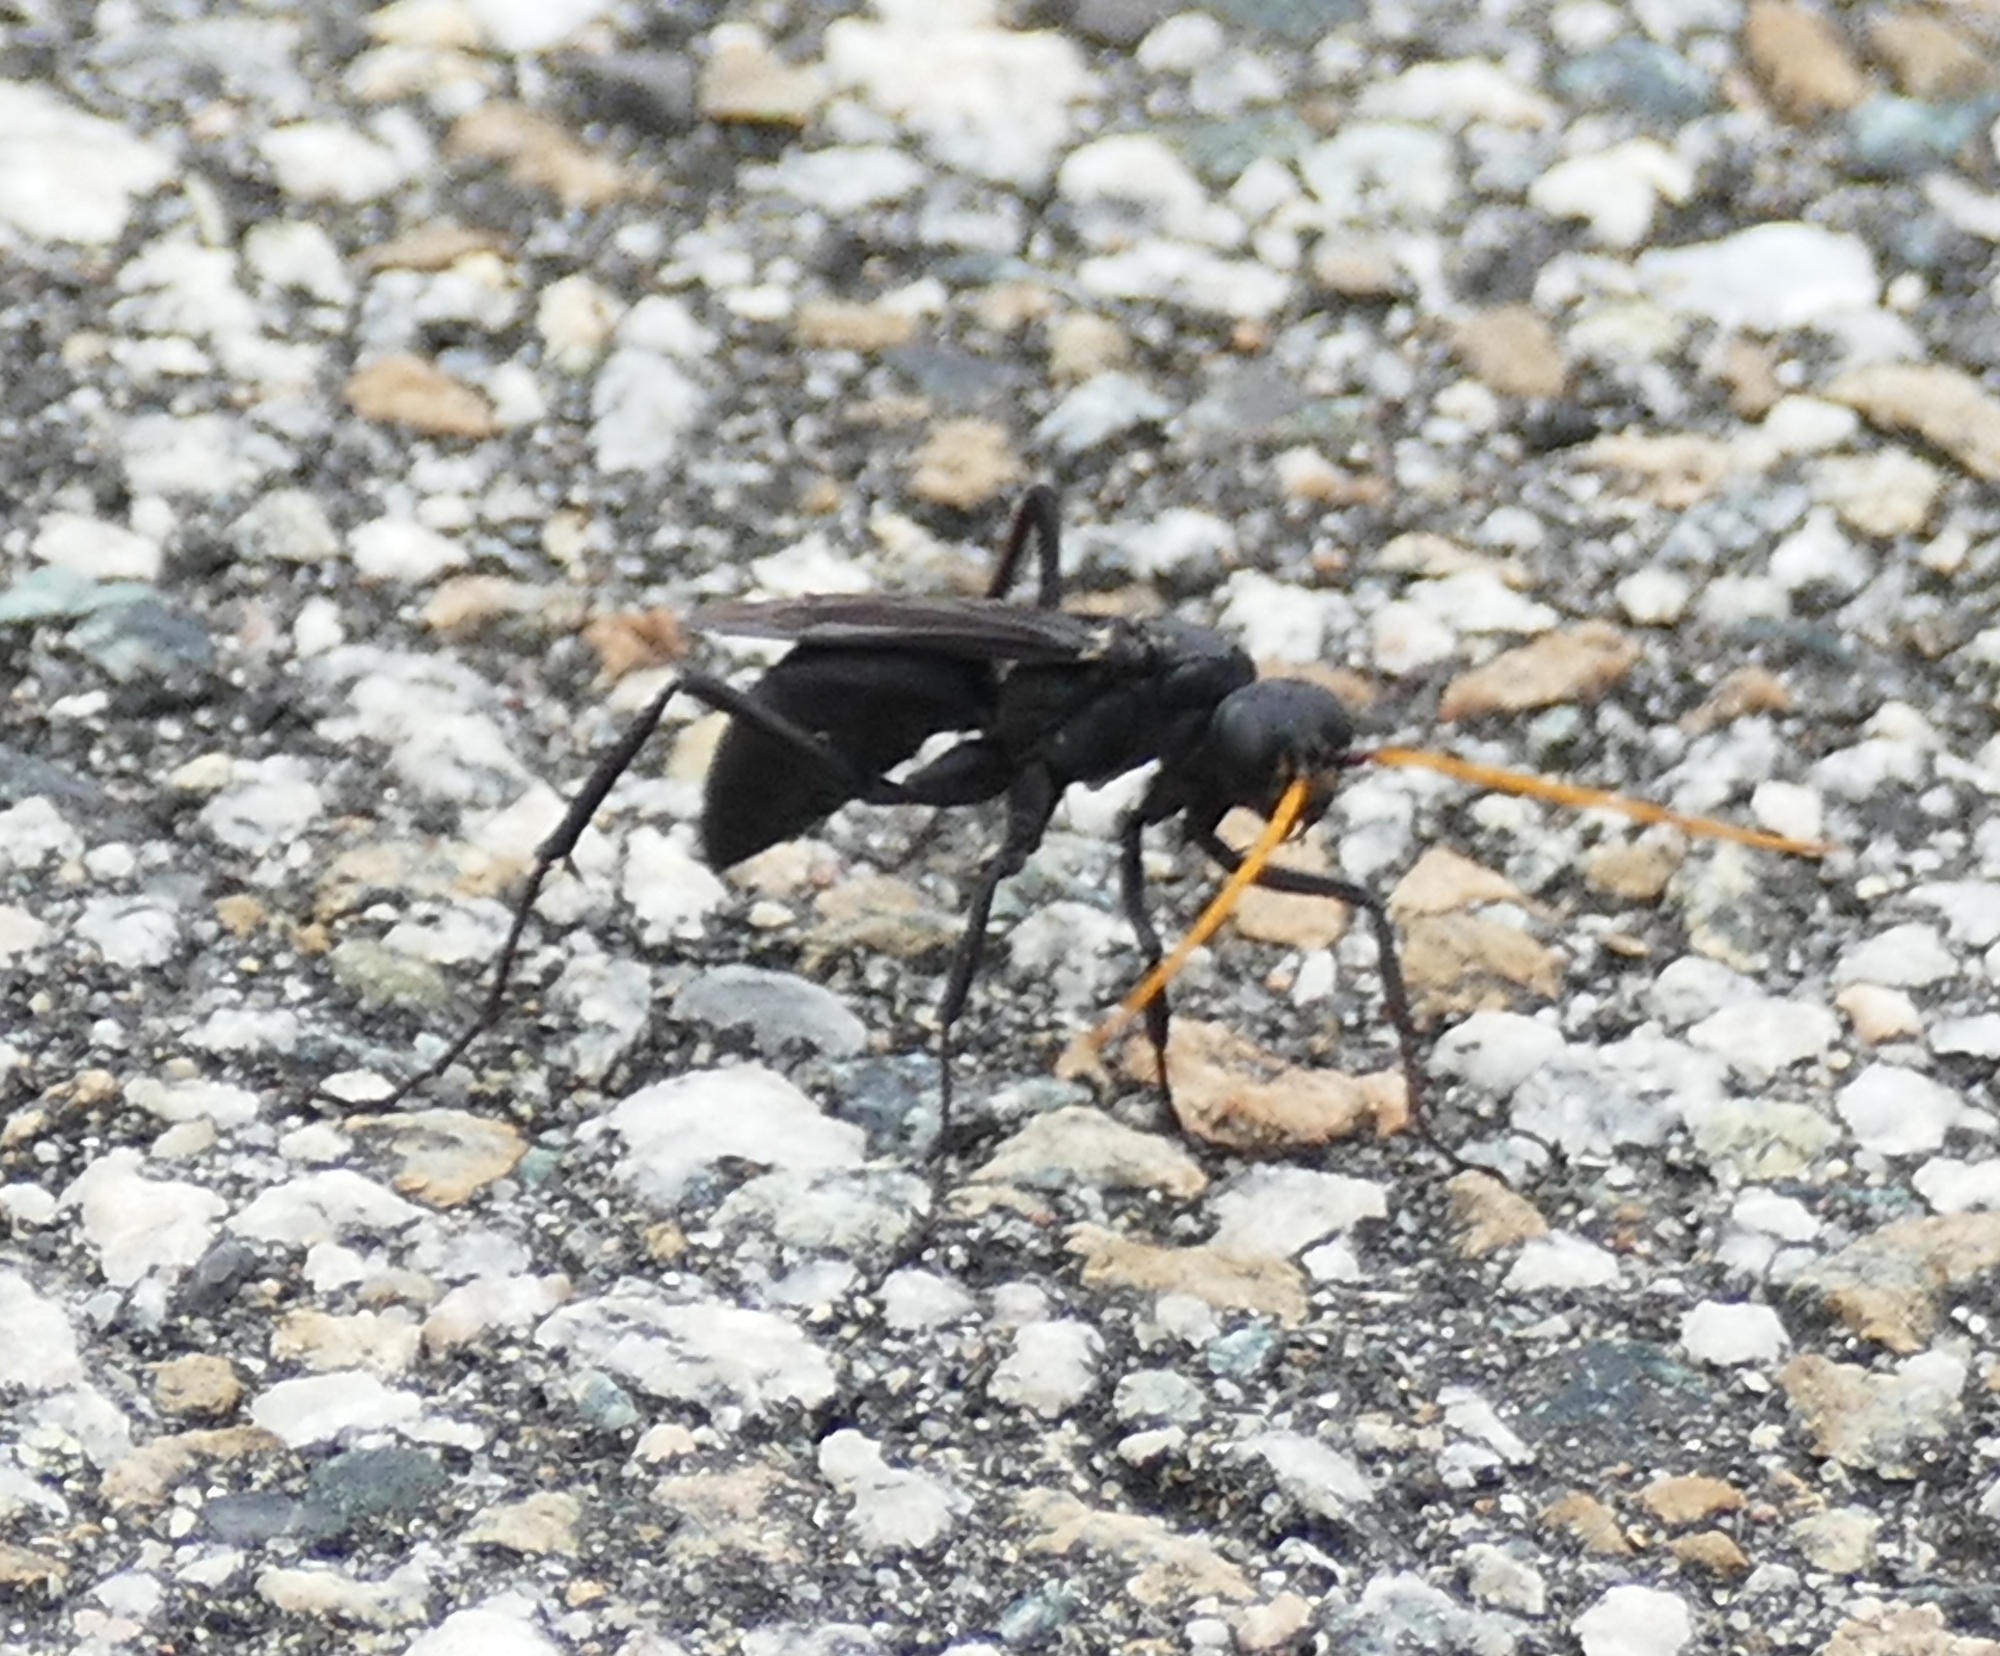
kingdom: Animalia
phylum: Arthropoda
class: Insecta
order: Hymenoptera
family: Pompilidae
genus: Entypus
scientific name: Entypus fulvicornis
